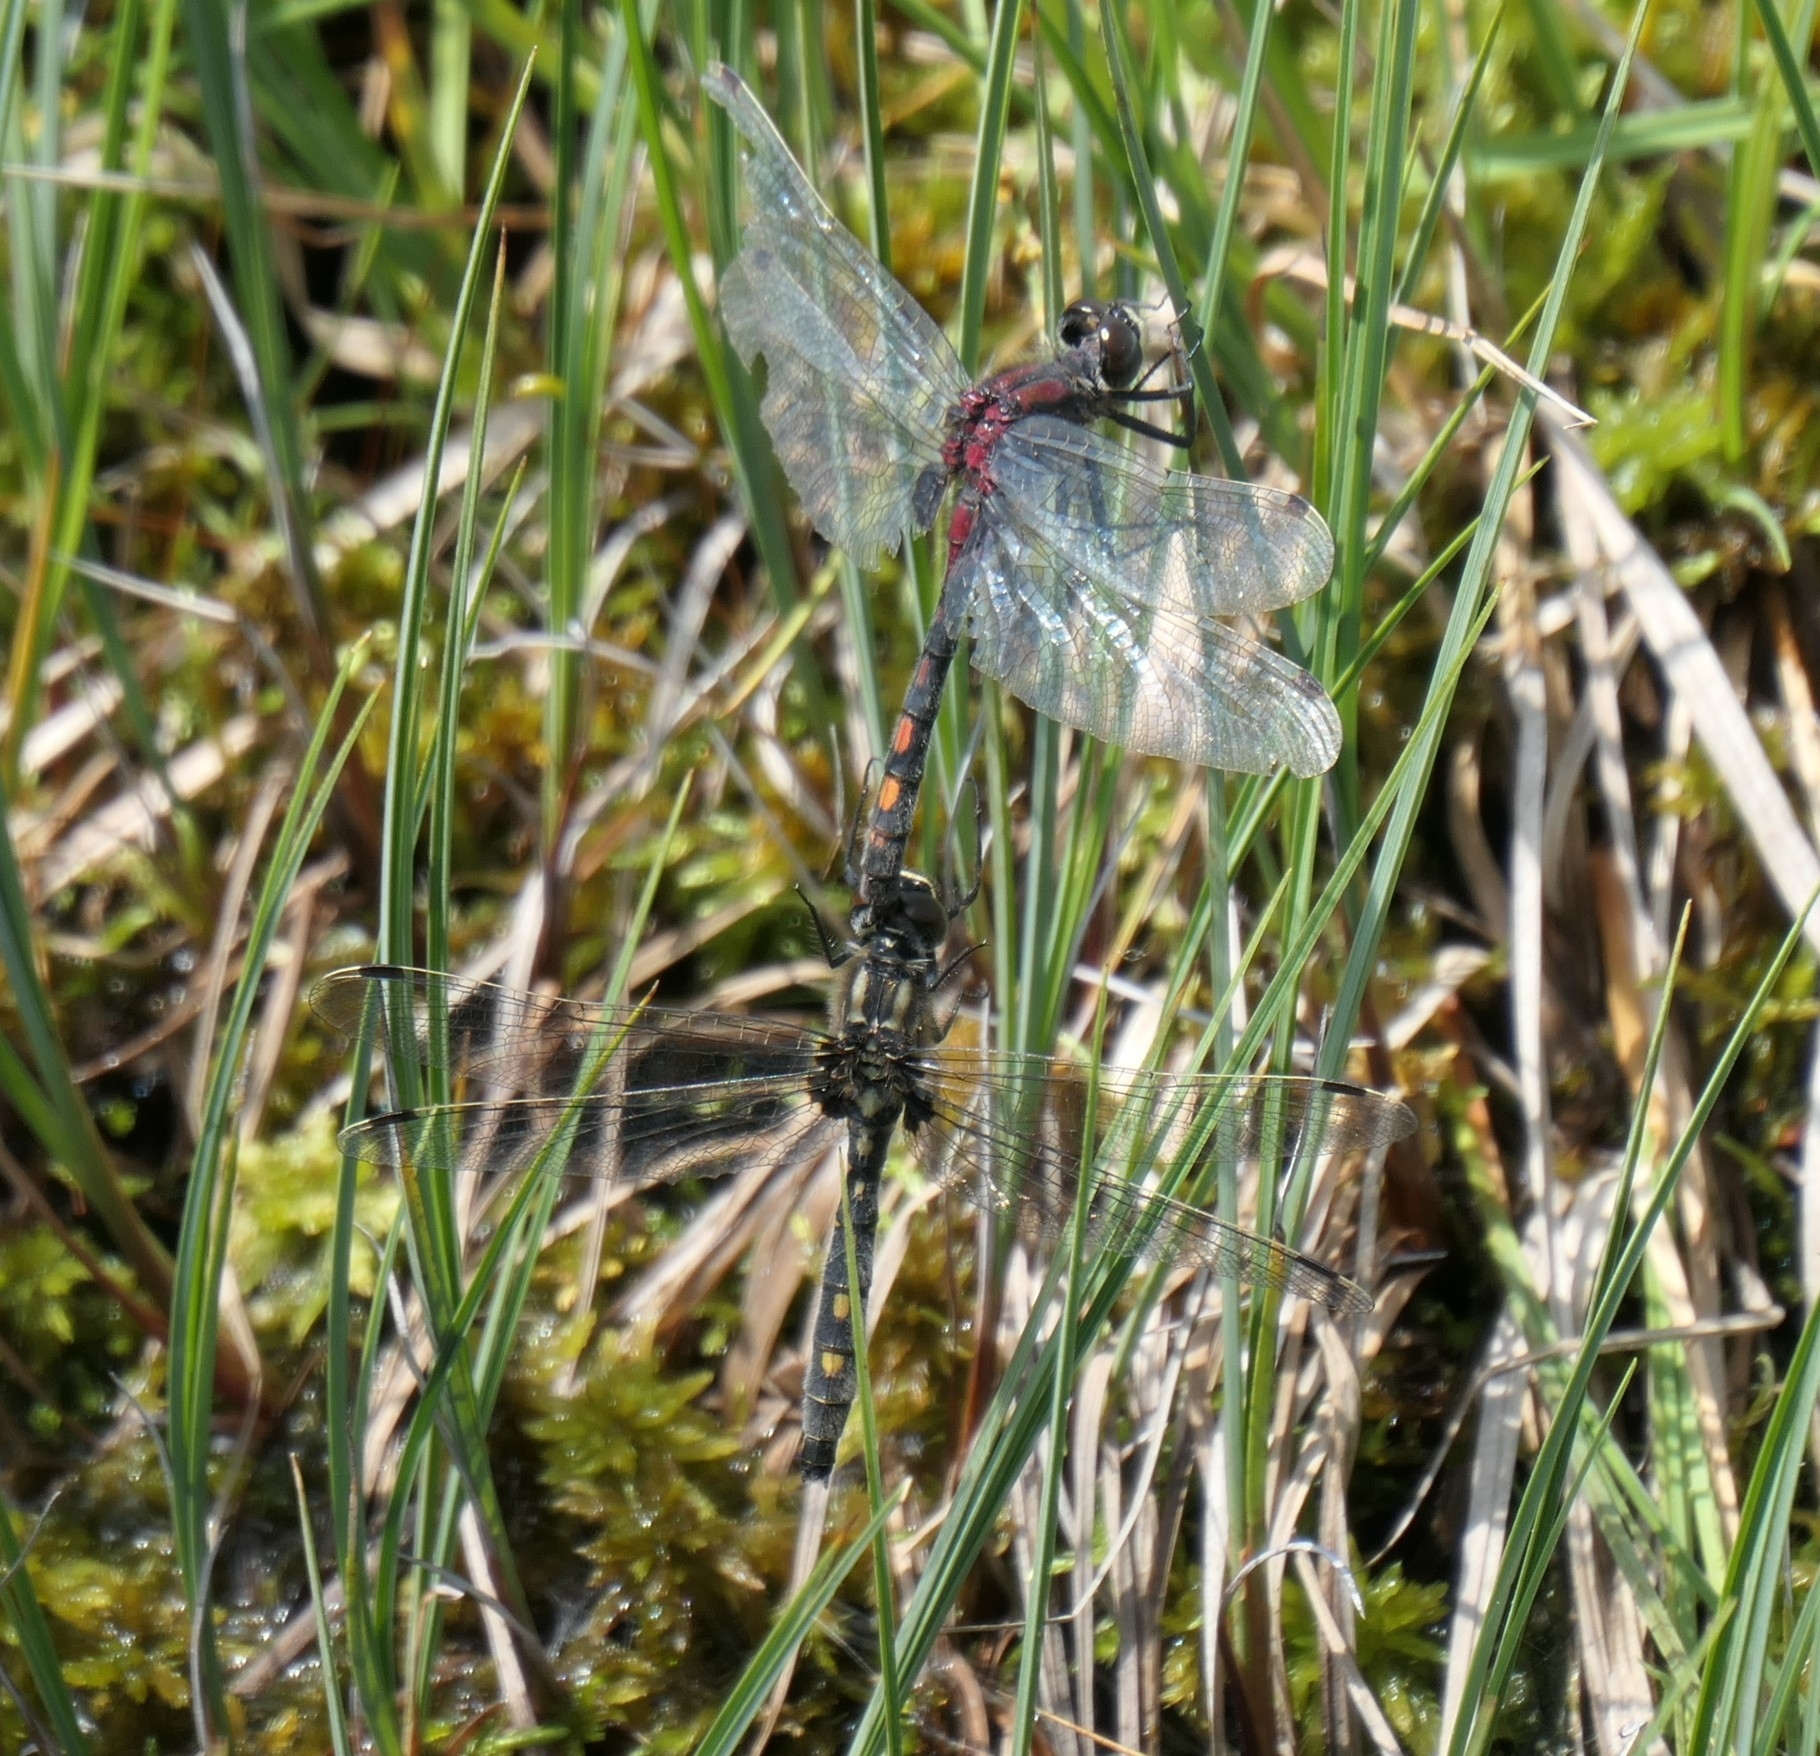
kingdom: Animalia
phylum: Arthropoda
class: Insecta
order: Odonata
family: Libellulidae
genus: Leucorrhinia
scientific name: Leucorrhinia dubia
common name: White-faced darter
